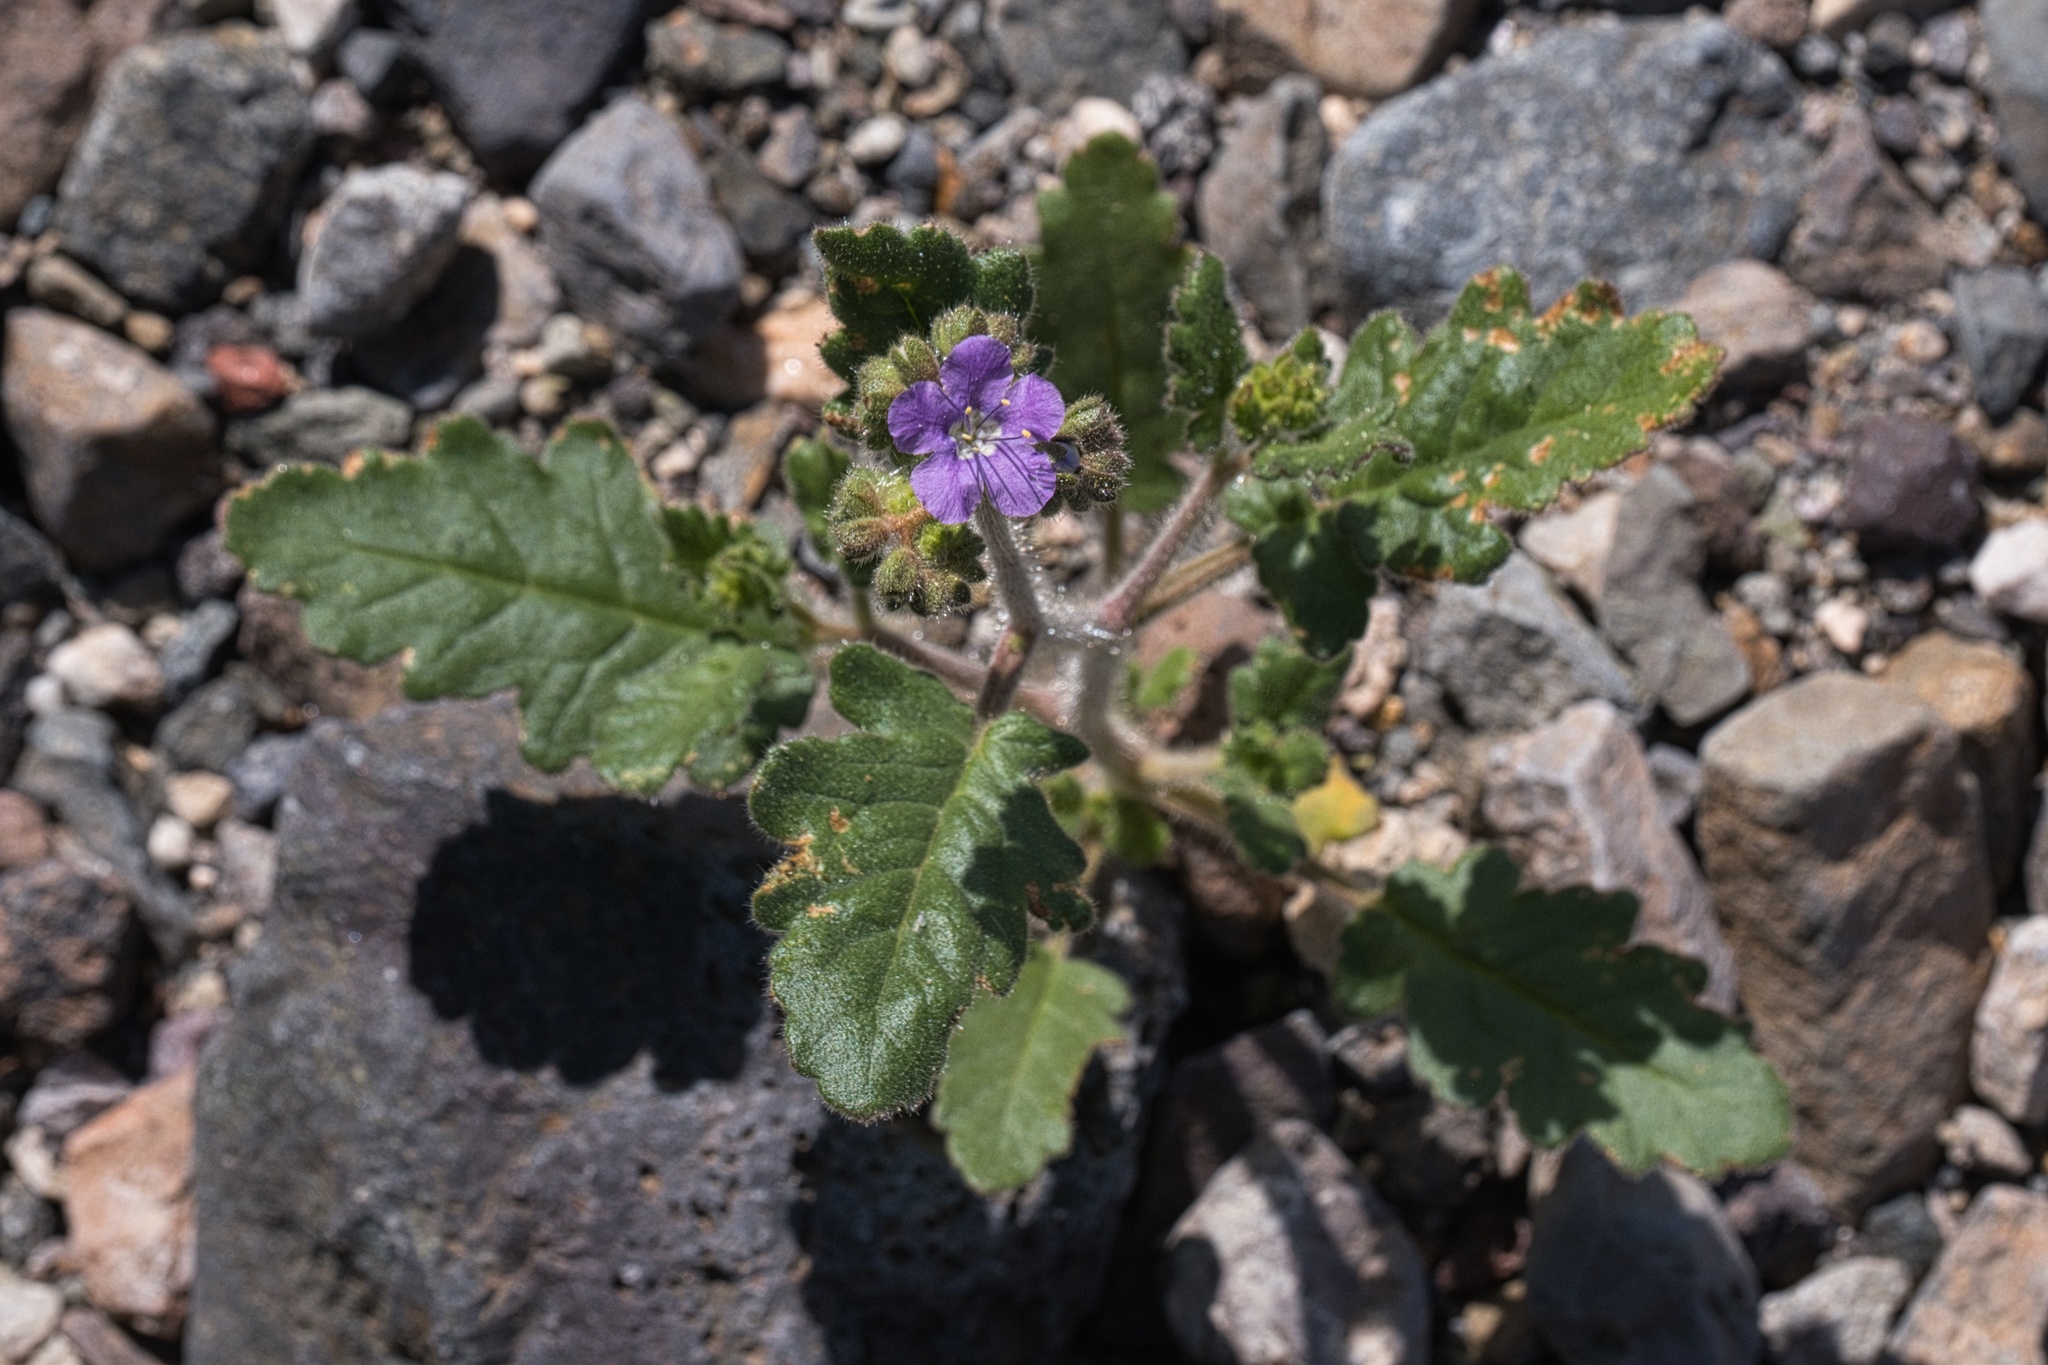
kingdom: Plantae
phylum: Tracheophyta
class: Magnoliopsida
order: Boraginales
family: Hydrophyllaceae
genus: Phacelia
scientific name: Phacelia crenulata
